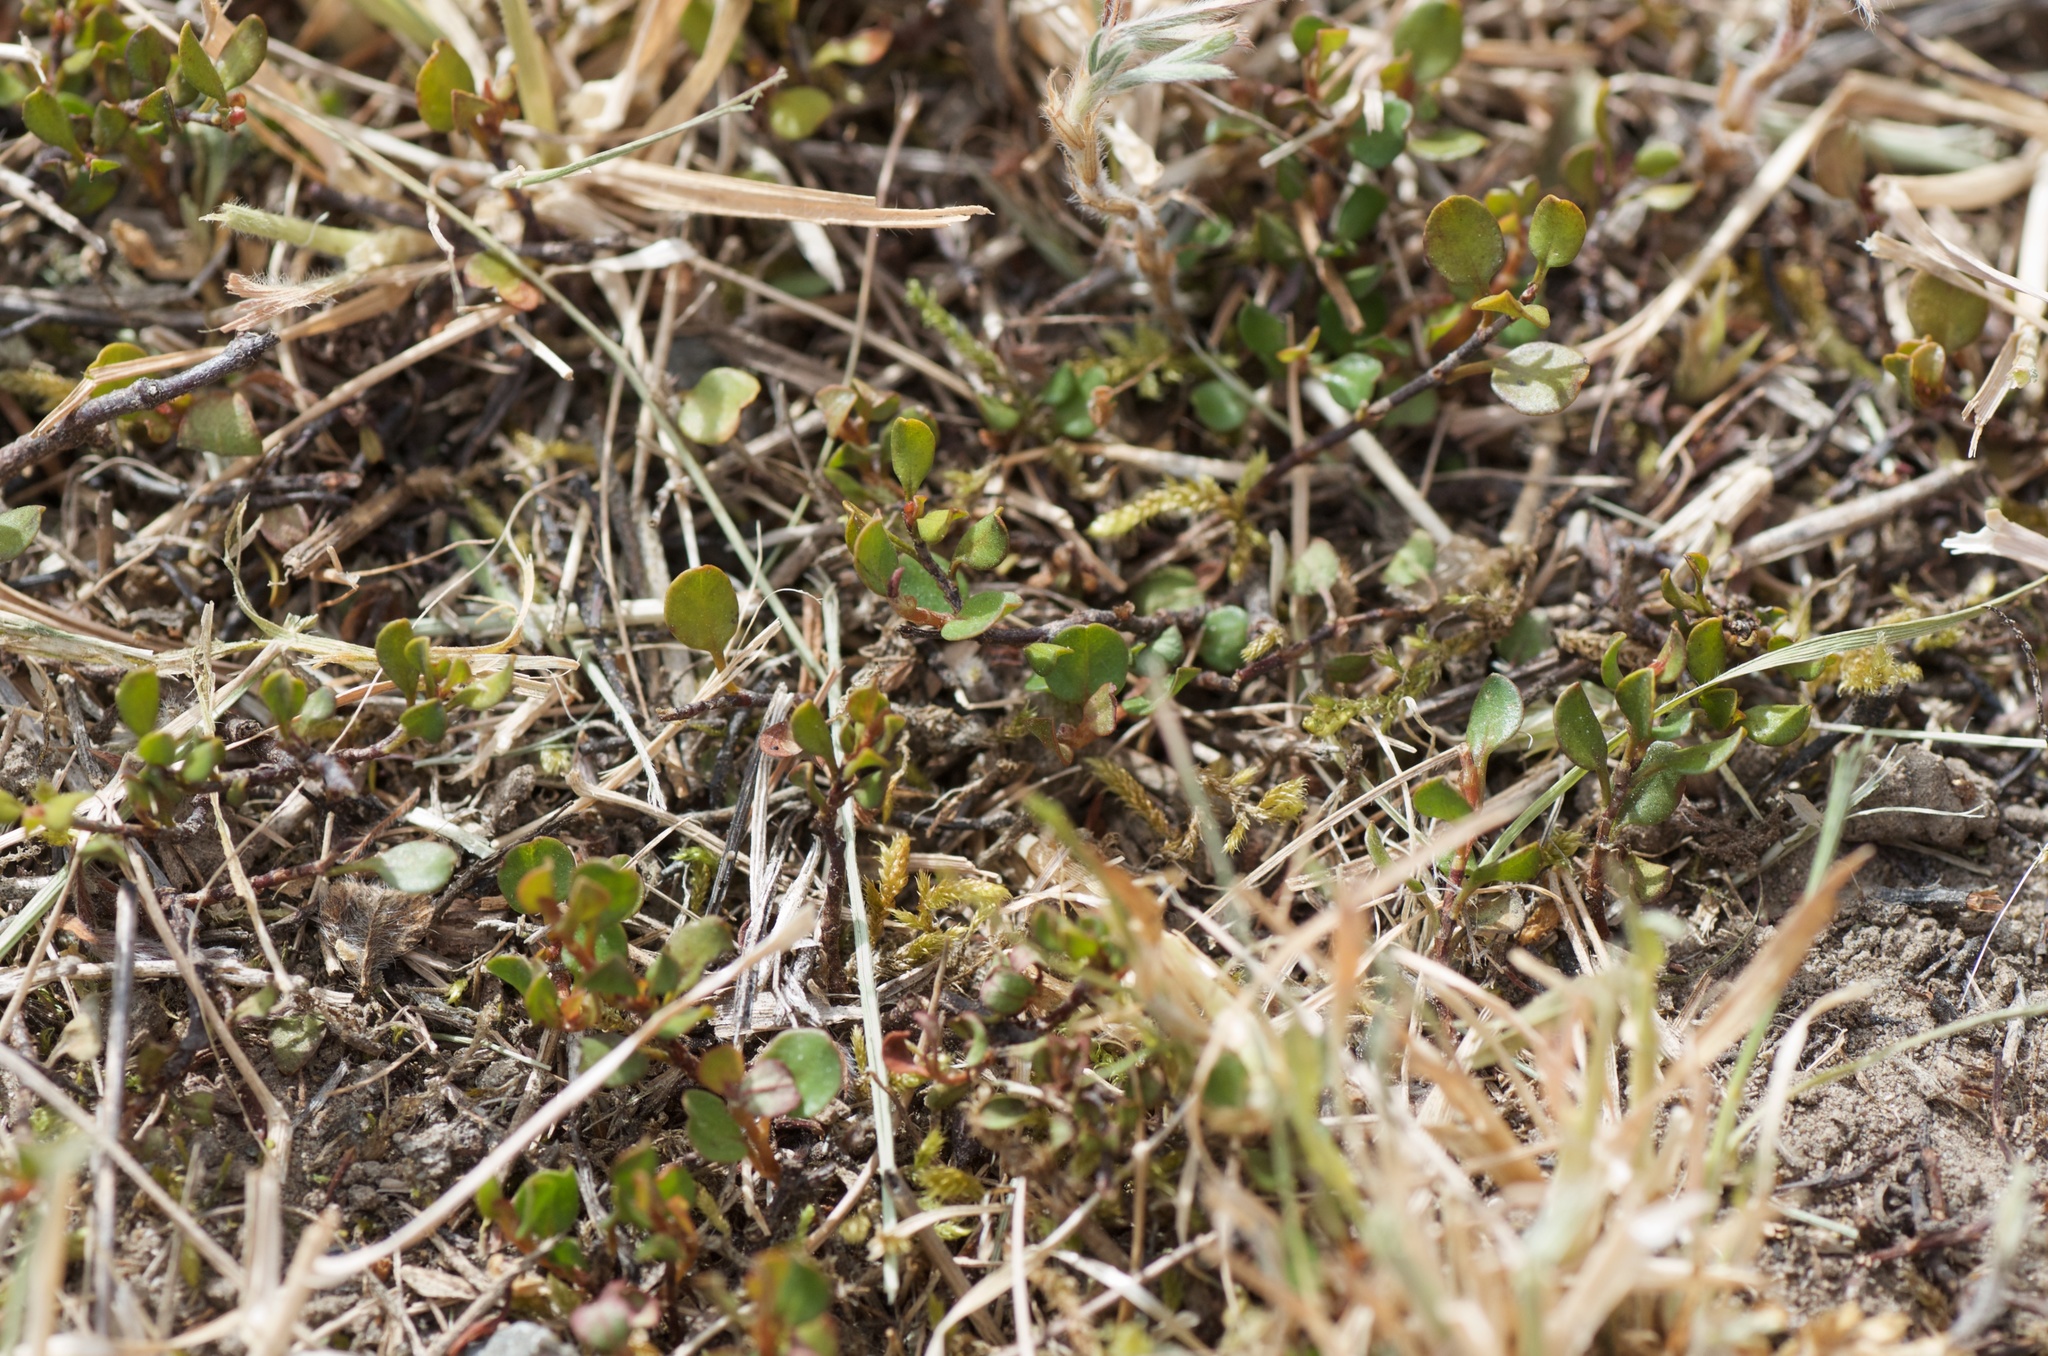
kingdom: Plantae
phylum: Tracheophyta
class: Magnoliopsida
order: Caryophyllales
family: Polygonaceae
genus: Muehlenbeckia
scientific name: Muehlenbeckia axillaris
